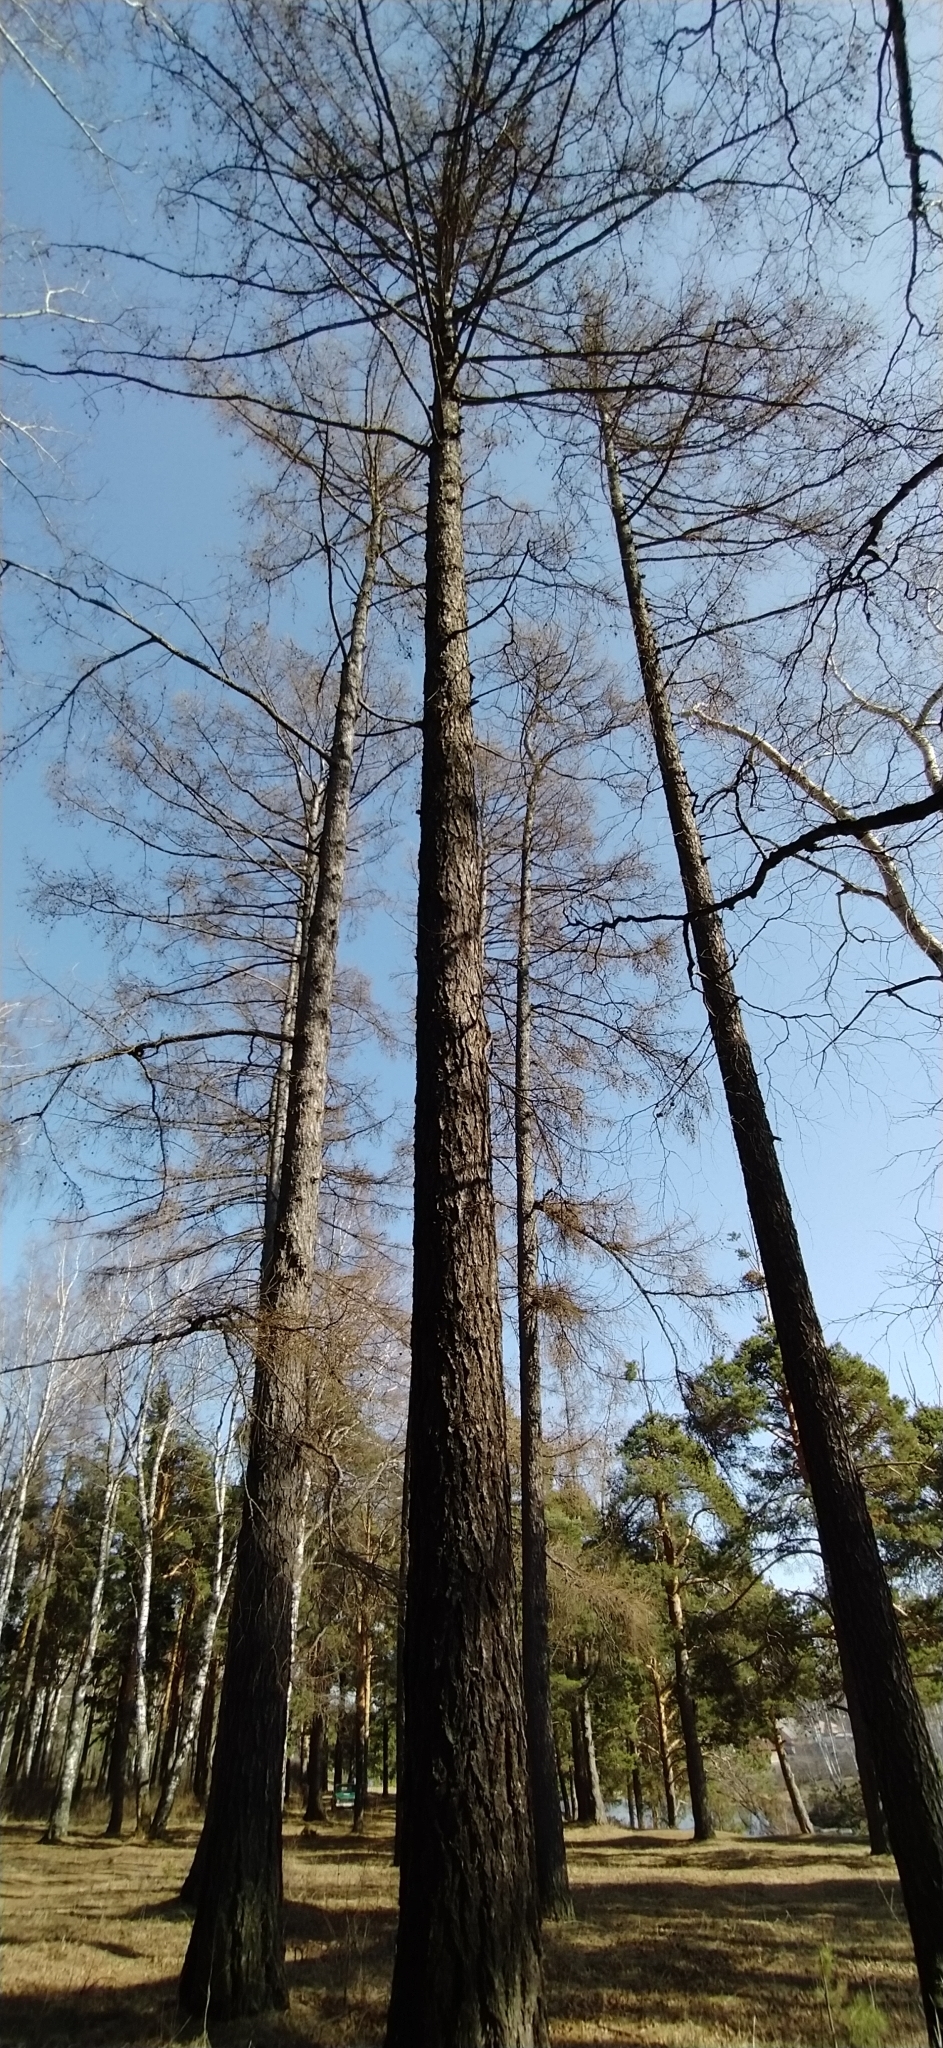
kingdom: Plantae
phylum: Tracheophyta
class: Pinopsida
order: Pinales
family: Pinaceae
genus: Larix
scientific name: Larix sibirica
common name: Siberian larch
